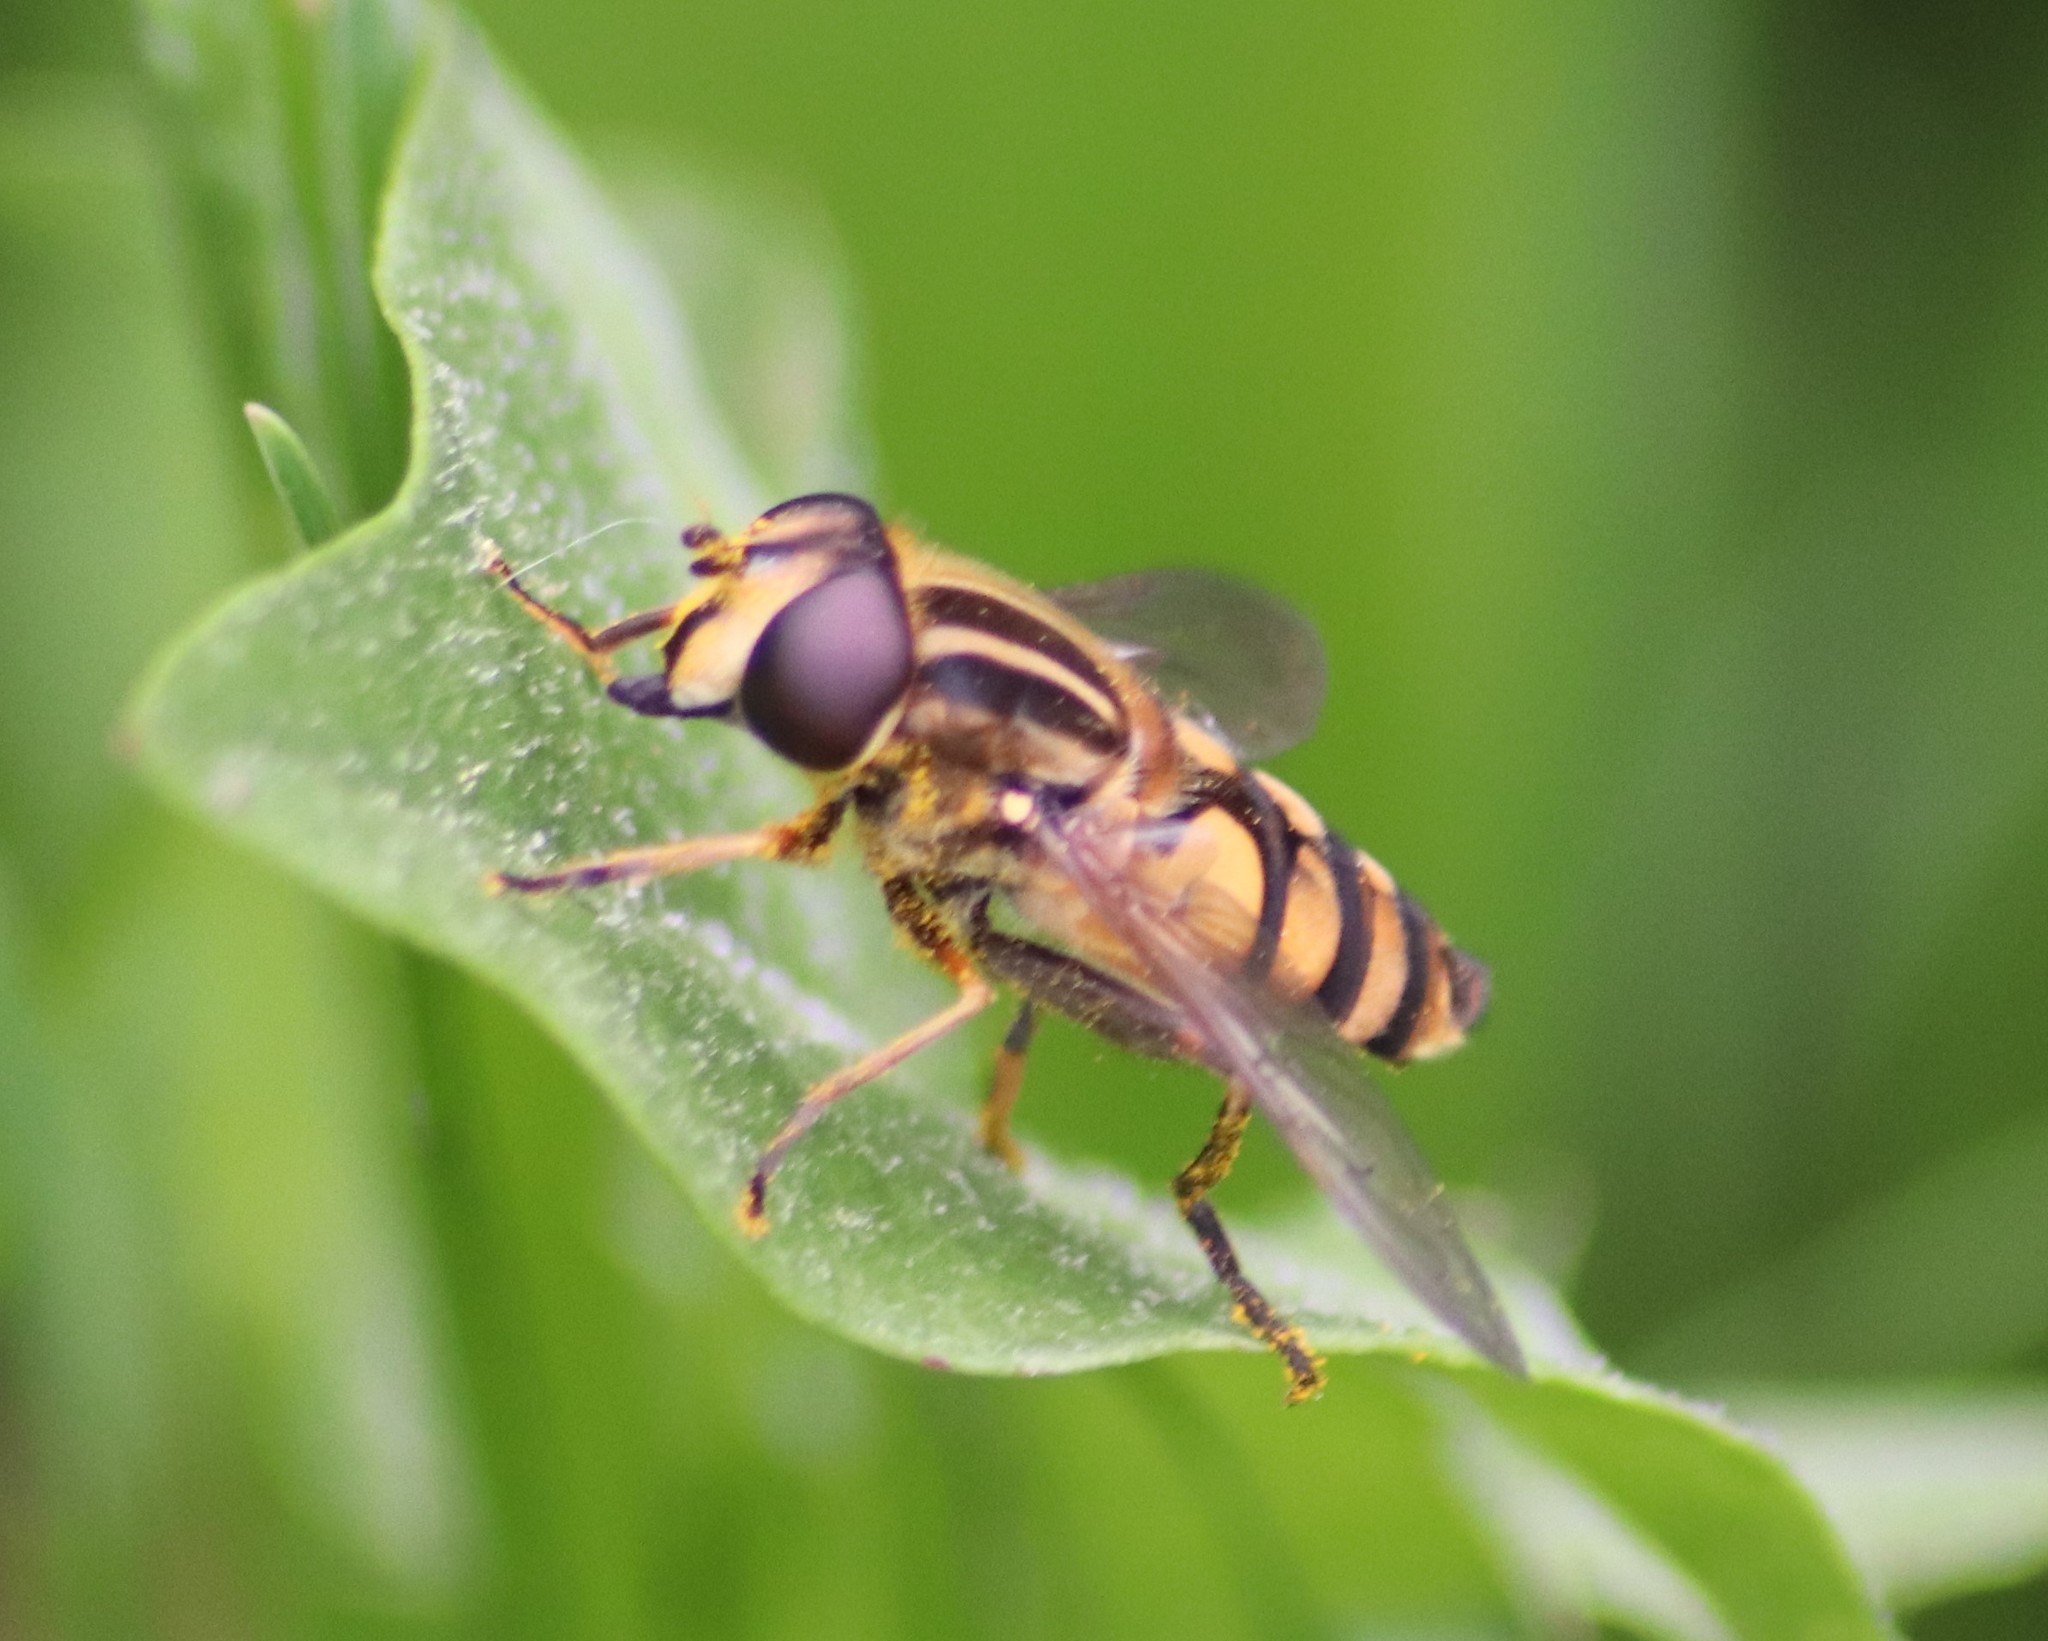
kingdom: Animalia
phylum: Arthropoda
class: Insecta
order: Diptera
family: Syrphidae
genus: Helophilus
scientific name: Helophilus fasciatus
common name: Narrow-headed marsh fly
